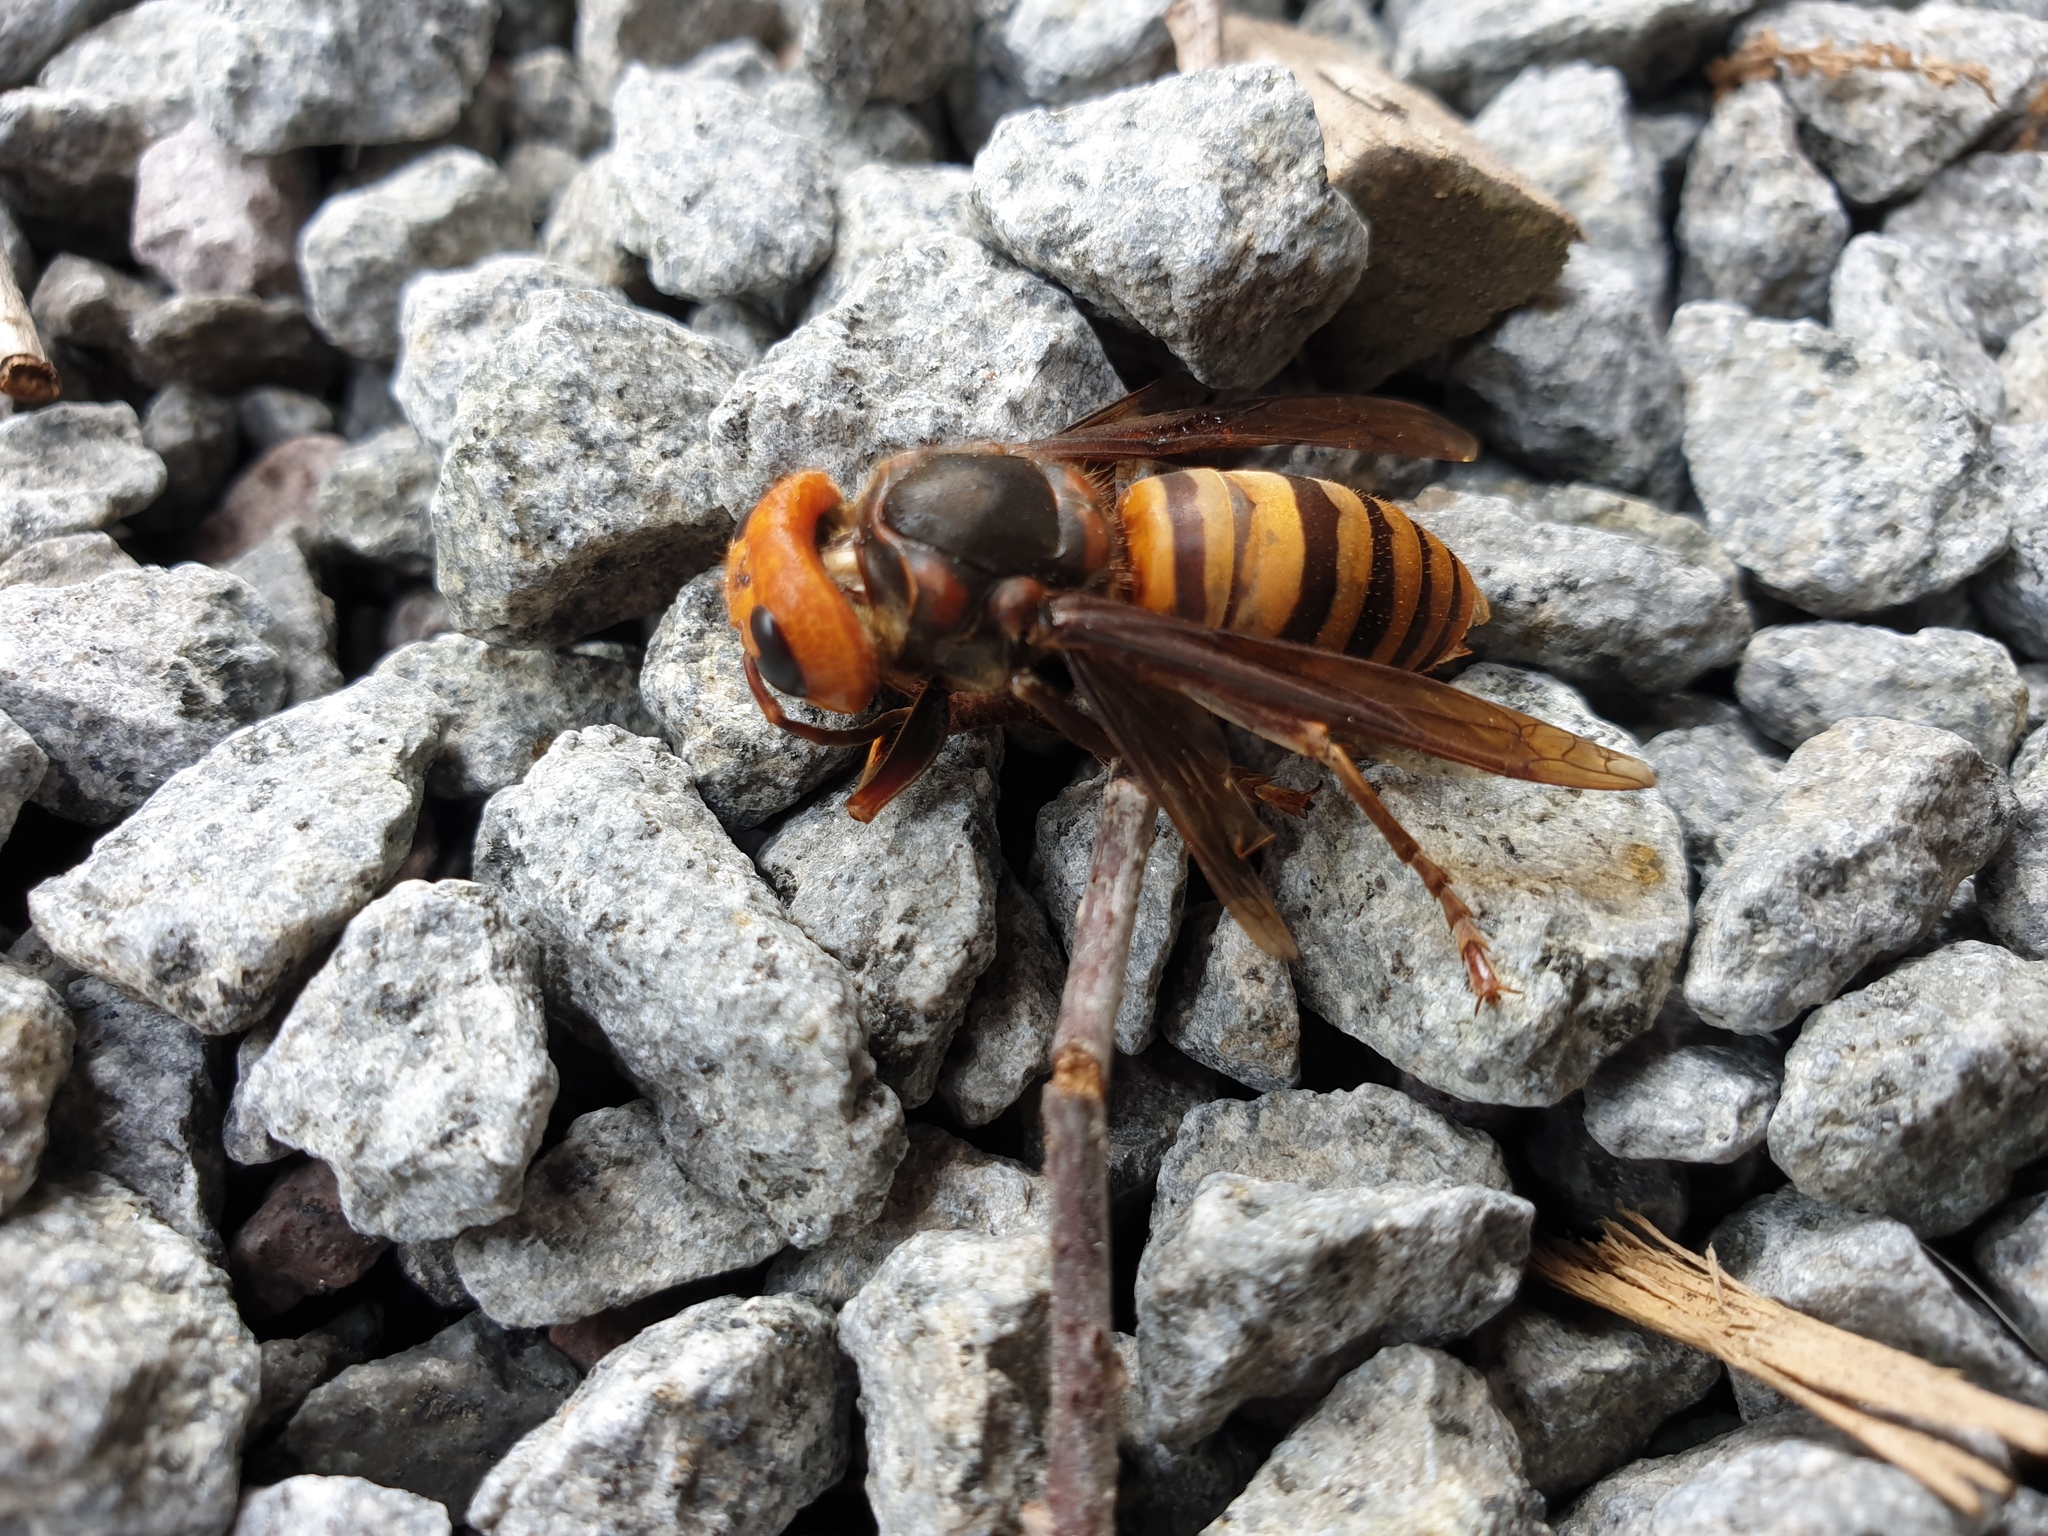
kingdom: Animalia
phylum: Arthropoda
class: Insecta
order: Hymenoptera
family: Vespidae
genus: Vespa
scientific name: Vespa mandarinia
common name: Asian giant hornet
